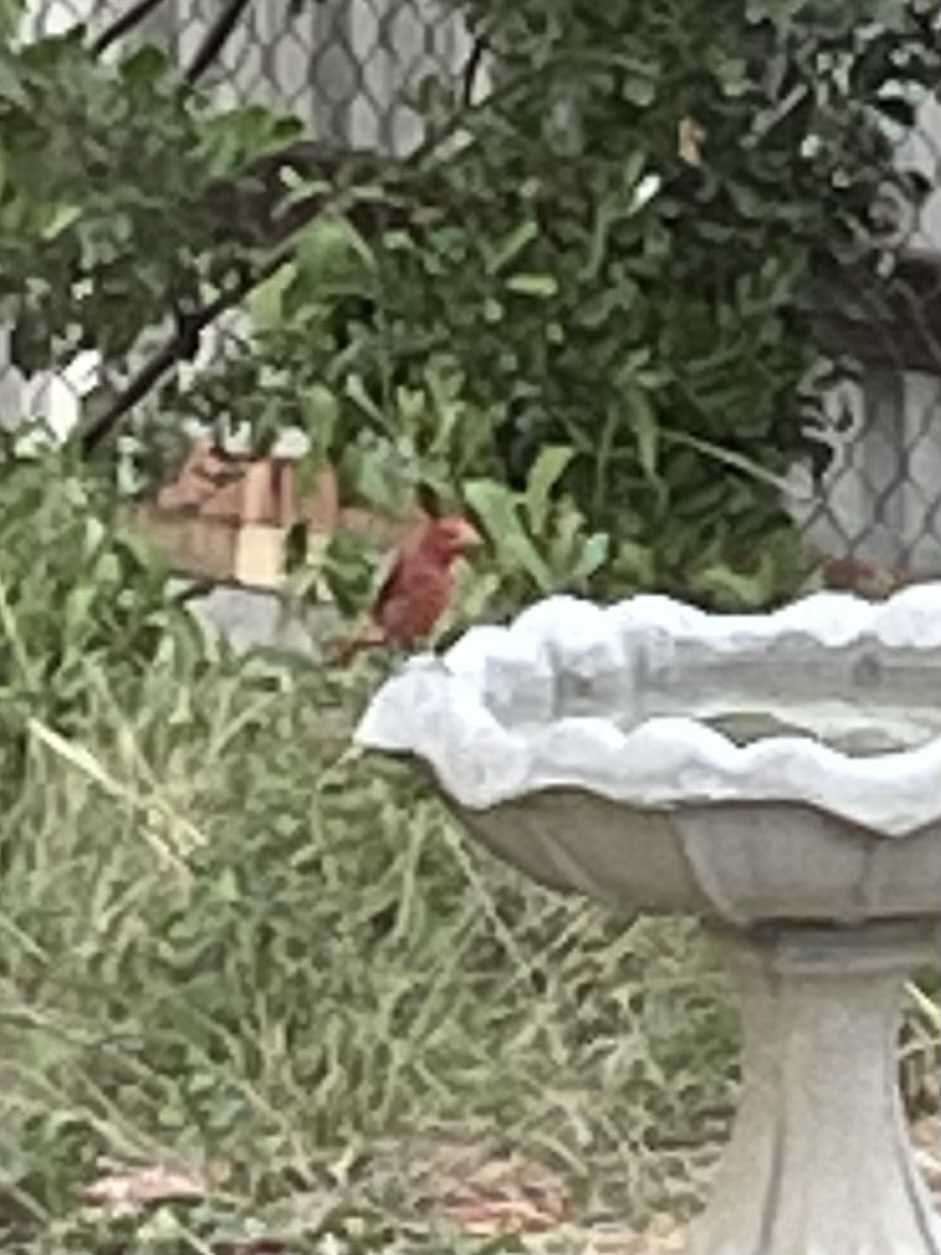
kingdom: Animalia
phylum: Chordata
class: Aves
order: Passeriformes
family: Cardinalidae
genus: Piranga
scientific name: Piranga rubra
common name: Summer tanager
